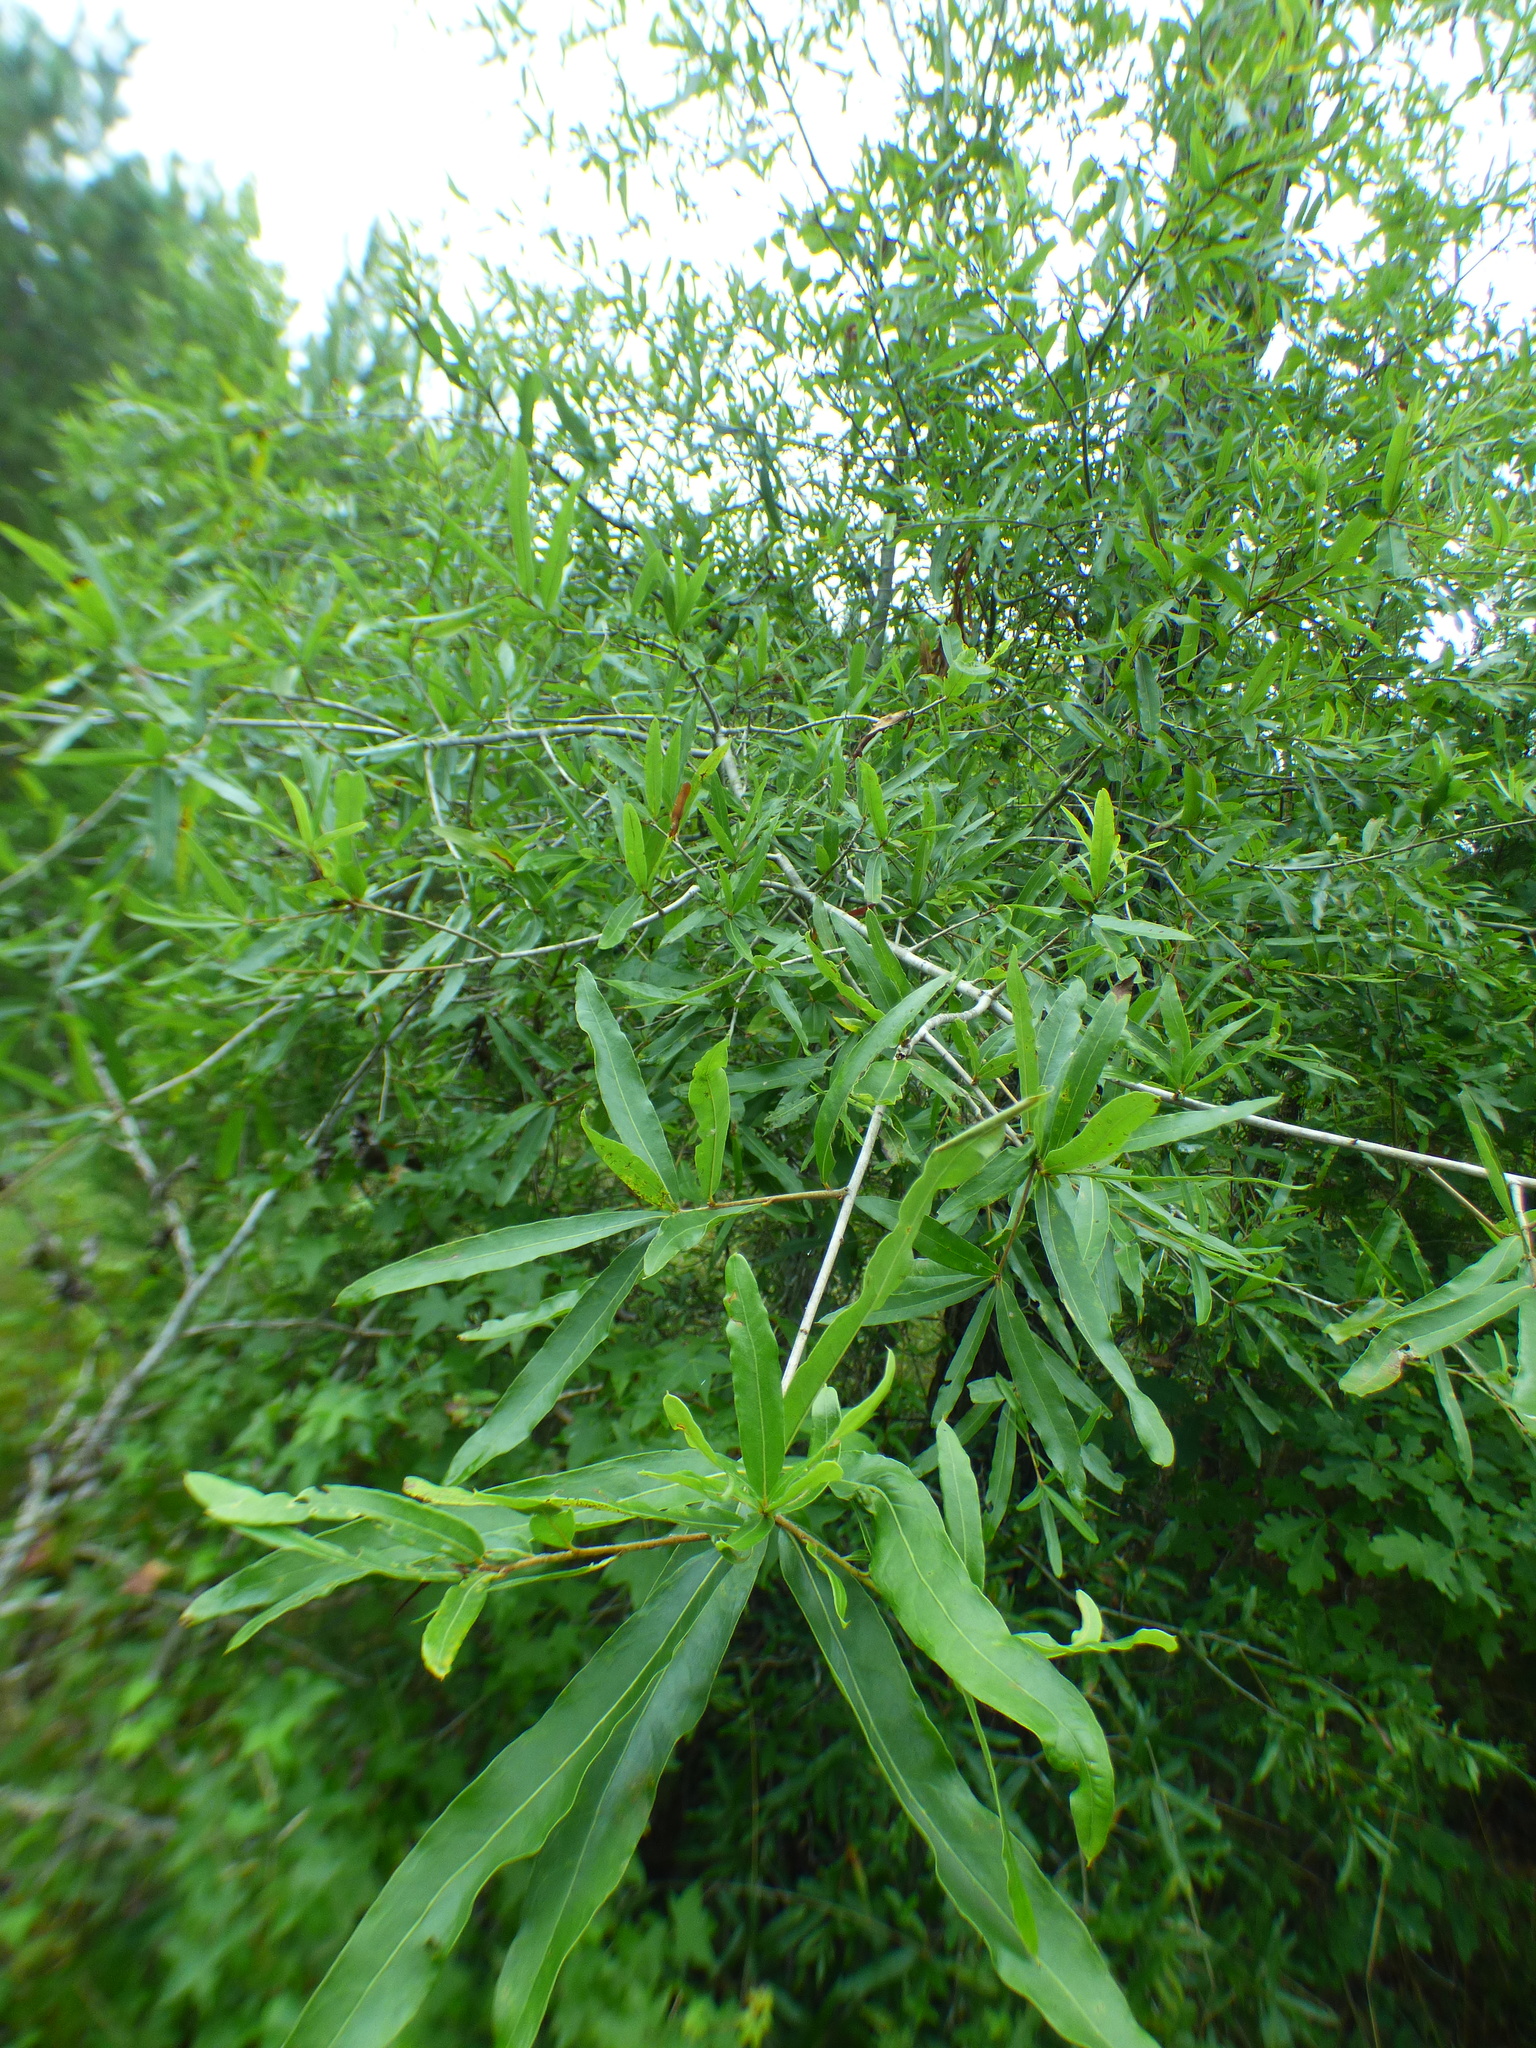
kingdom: Plantae
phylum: Tracheophyta
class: Magnoliopsida
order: Fagales
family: Fagaceae
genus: Quercus
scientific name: Quercus phellos
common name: Willow oak
